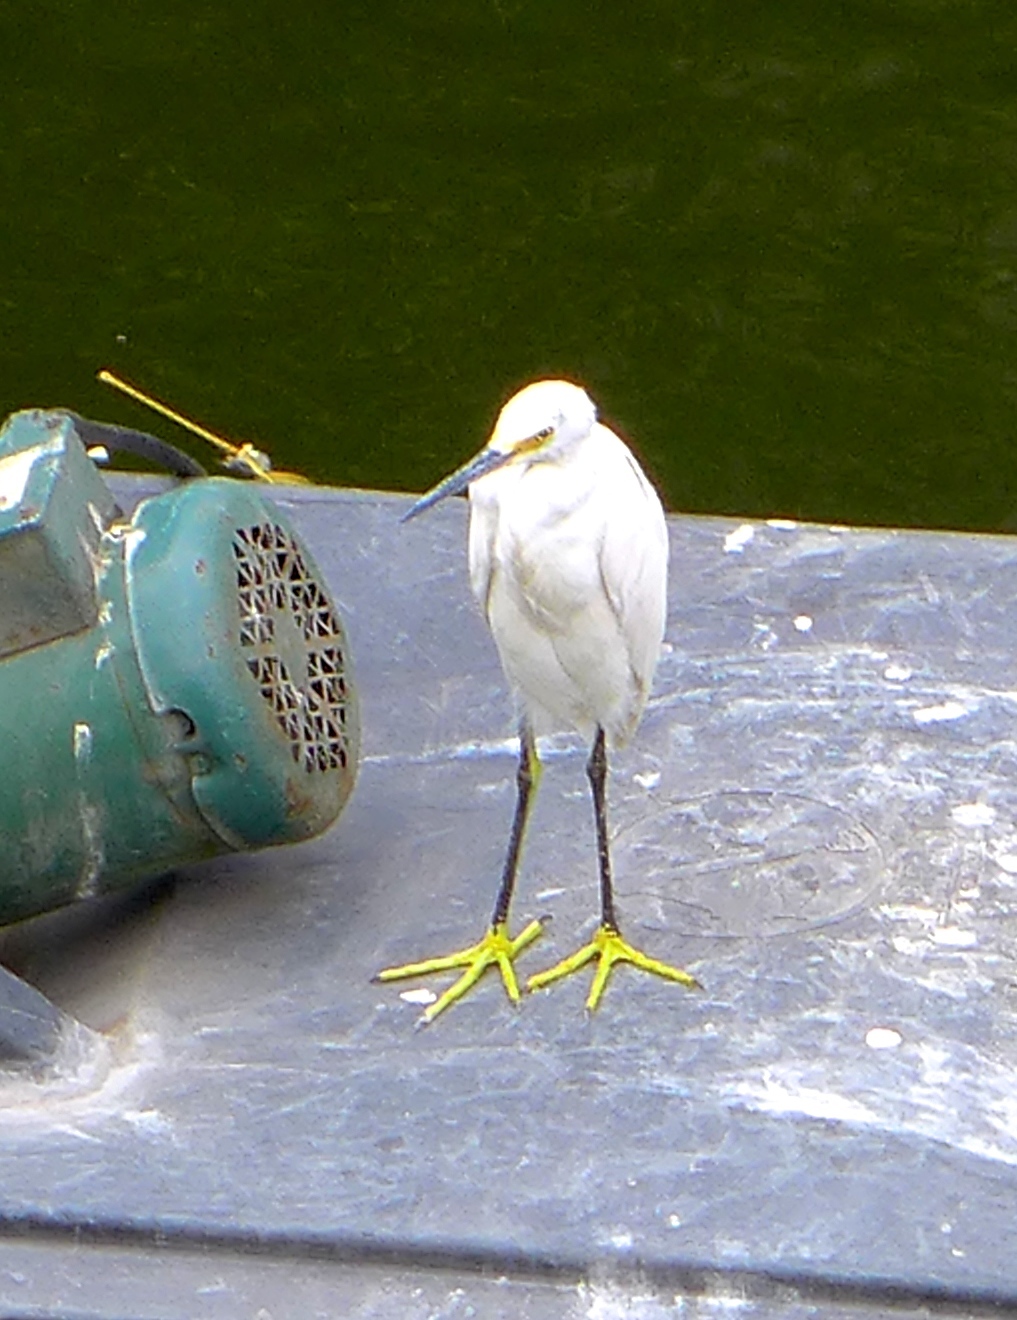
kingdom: Animalia
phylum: Chordata
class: Aves
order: Pelecaniformes
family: Ardeidae
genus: Egretta
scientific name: Egretta thula
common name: Snowy egret
